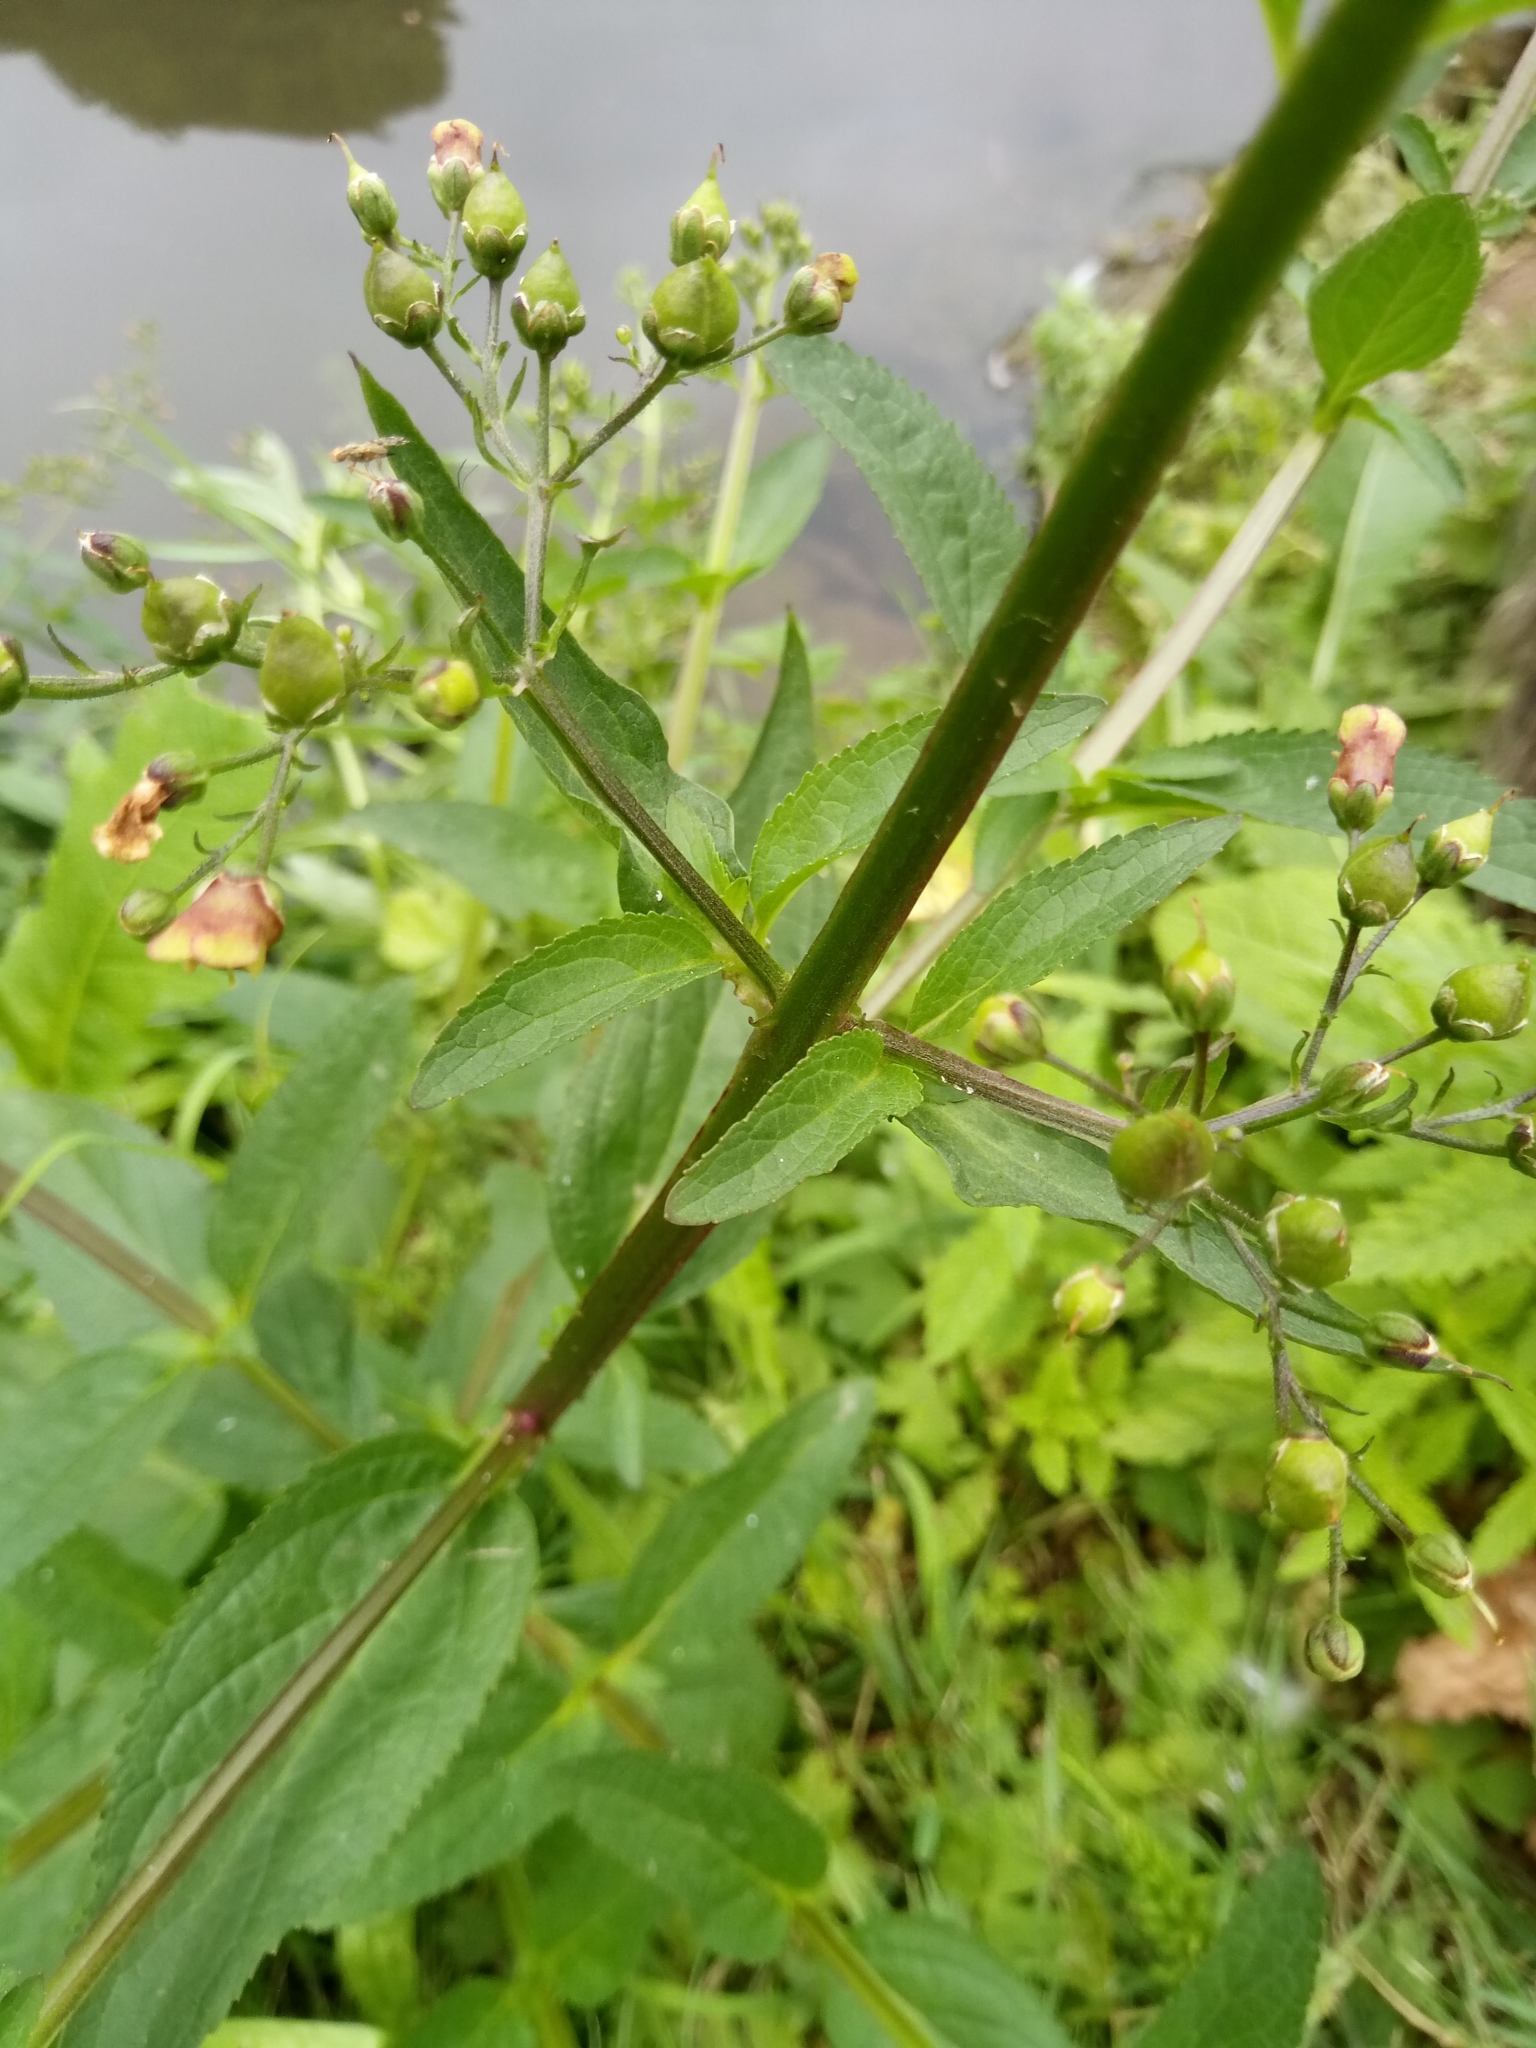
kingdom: Plantae
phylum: Tracheophyta
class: Magnoliopsida
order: Lamiales
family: Scrophulariaceae
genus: Scrophularia
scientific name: Scrophularia umbrosa
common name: Green figwort
